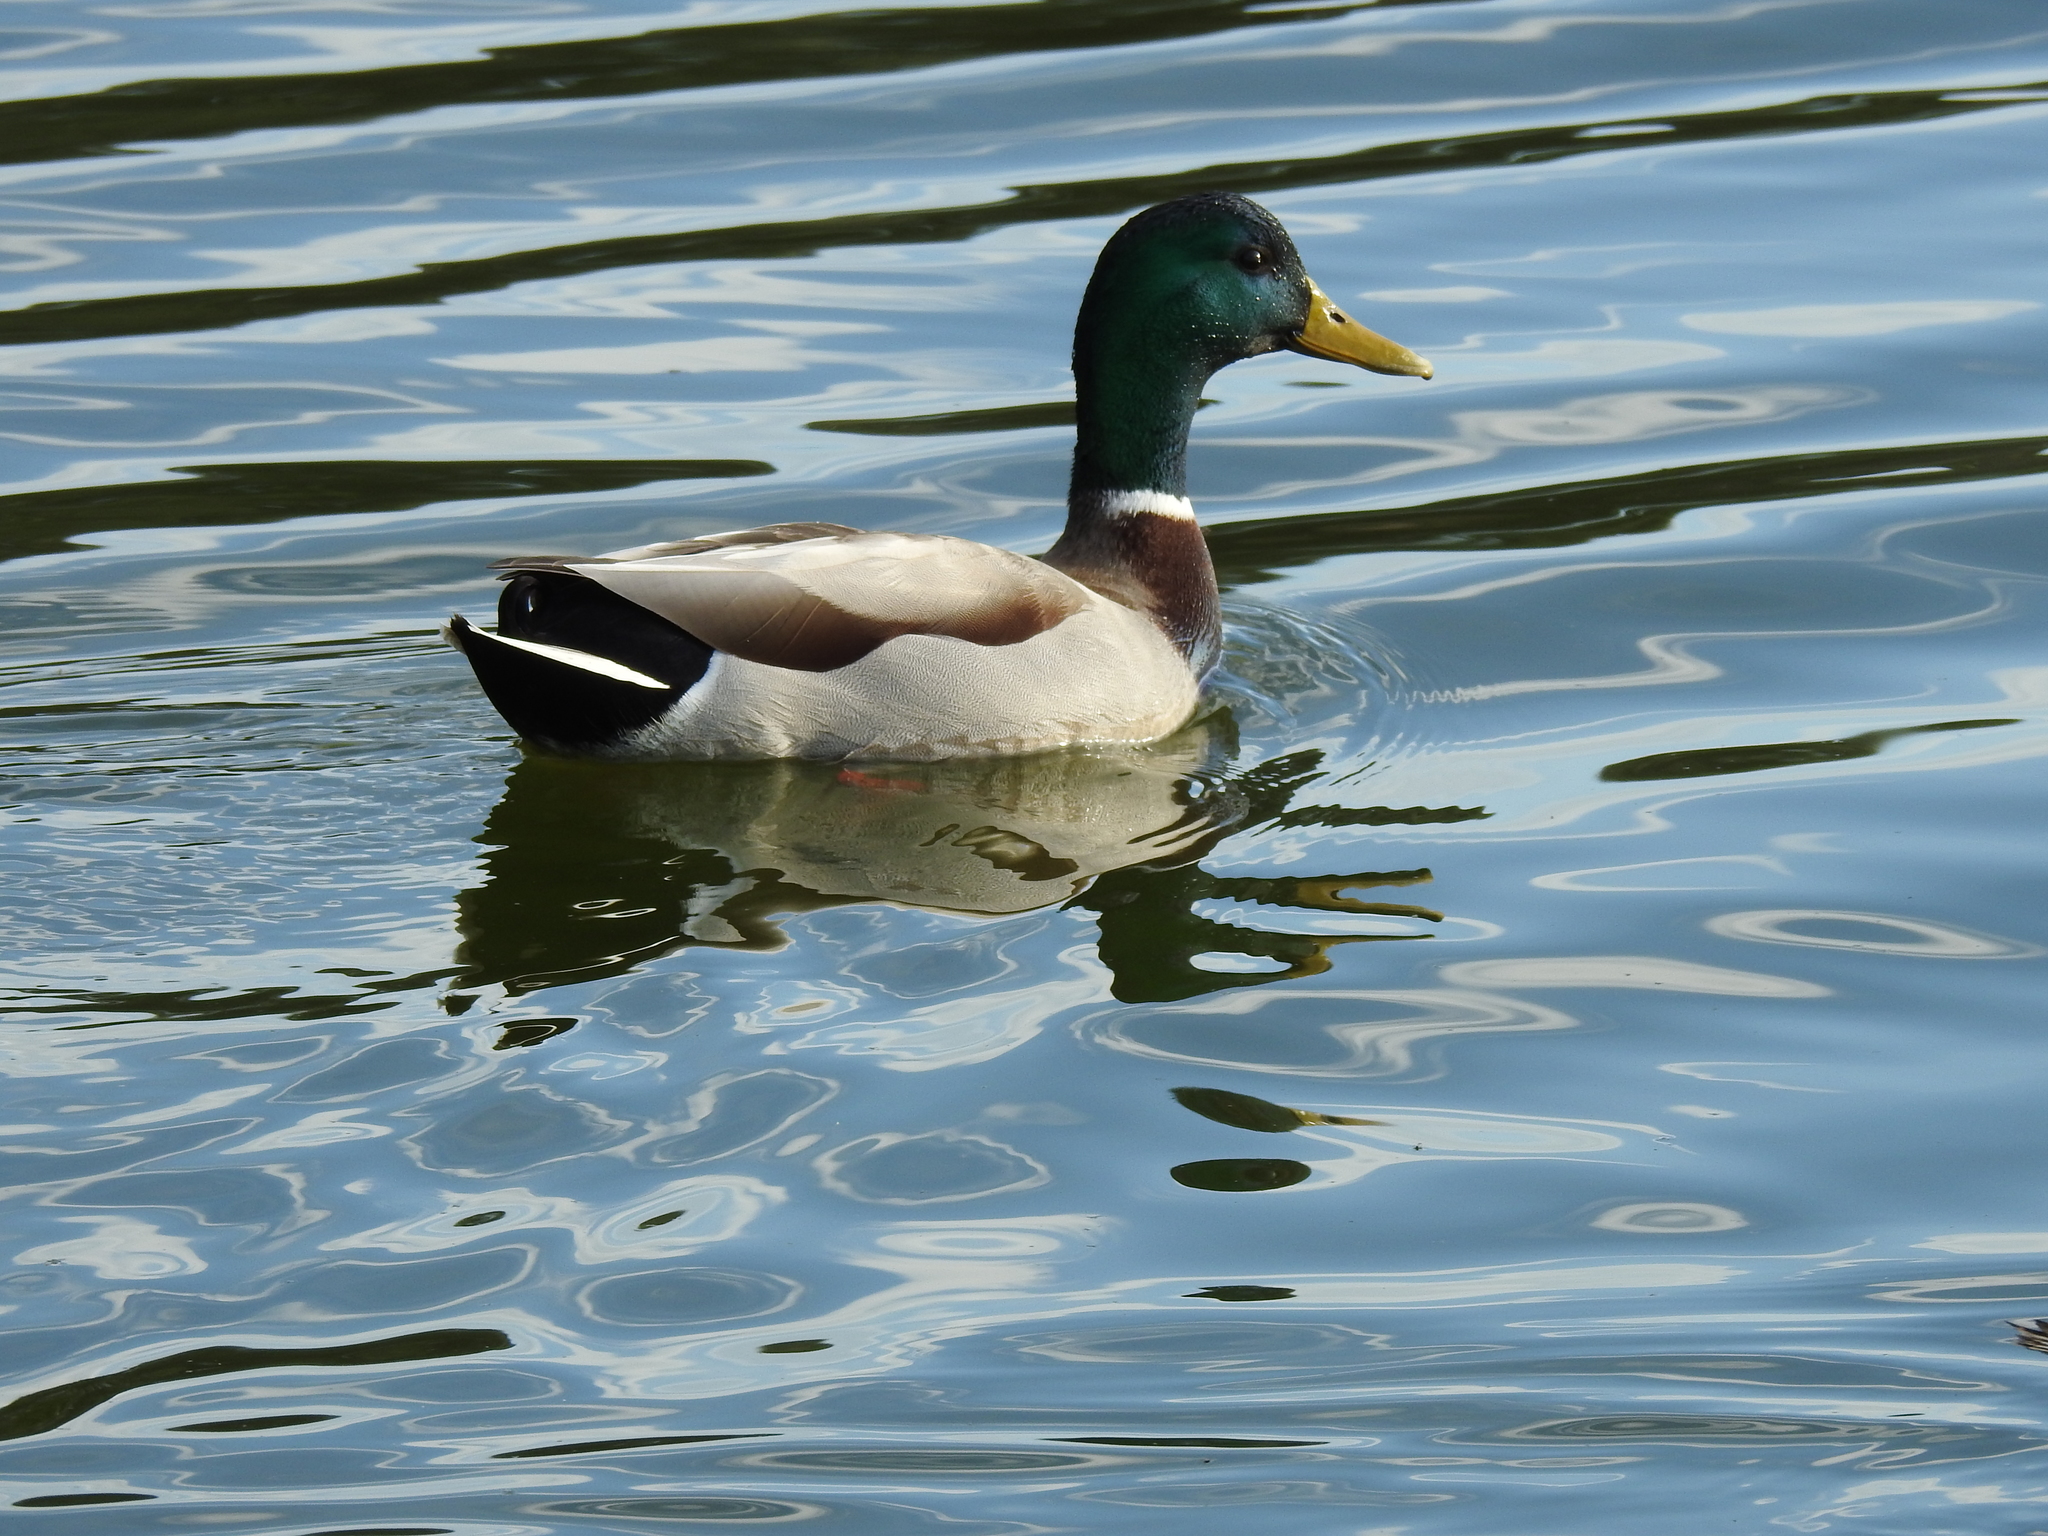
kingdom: Animalia
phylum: Chordata
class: Aves
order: Anseriformes
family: Anatidae
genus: Anas
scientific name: Anas platyrhynchos
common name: Mallard
